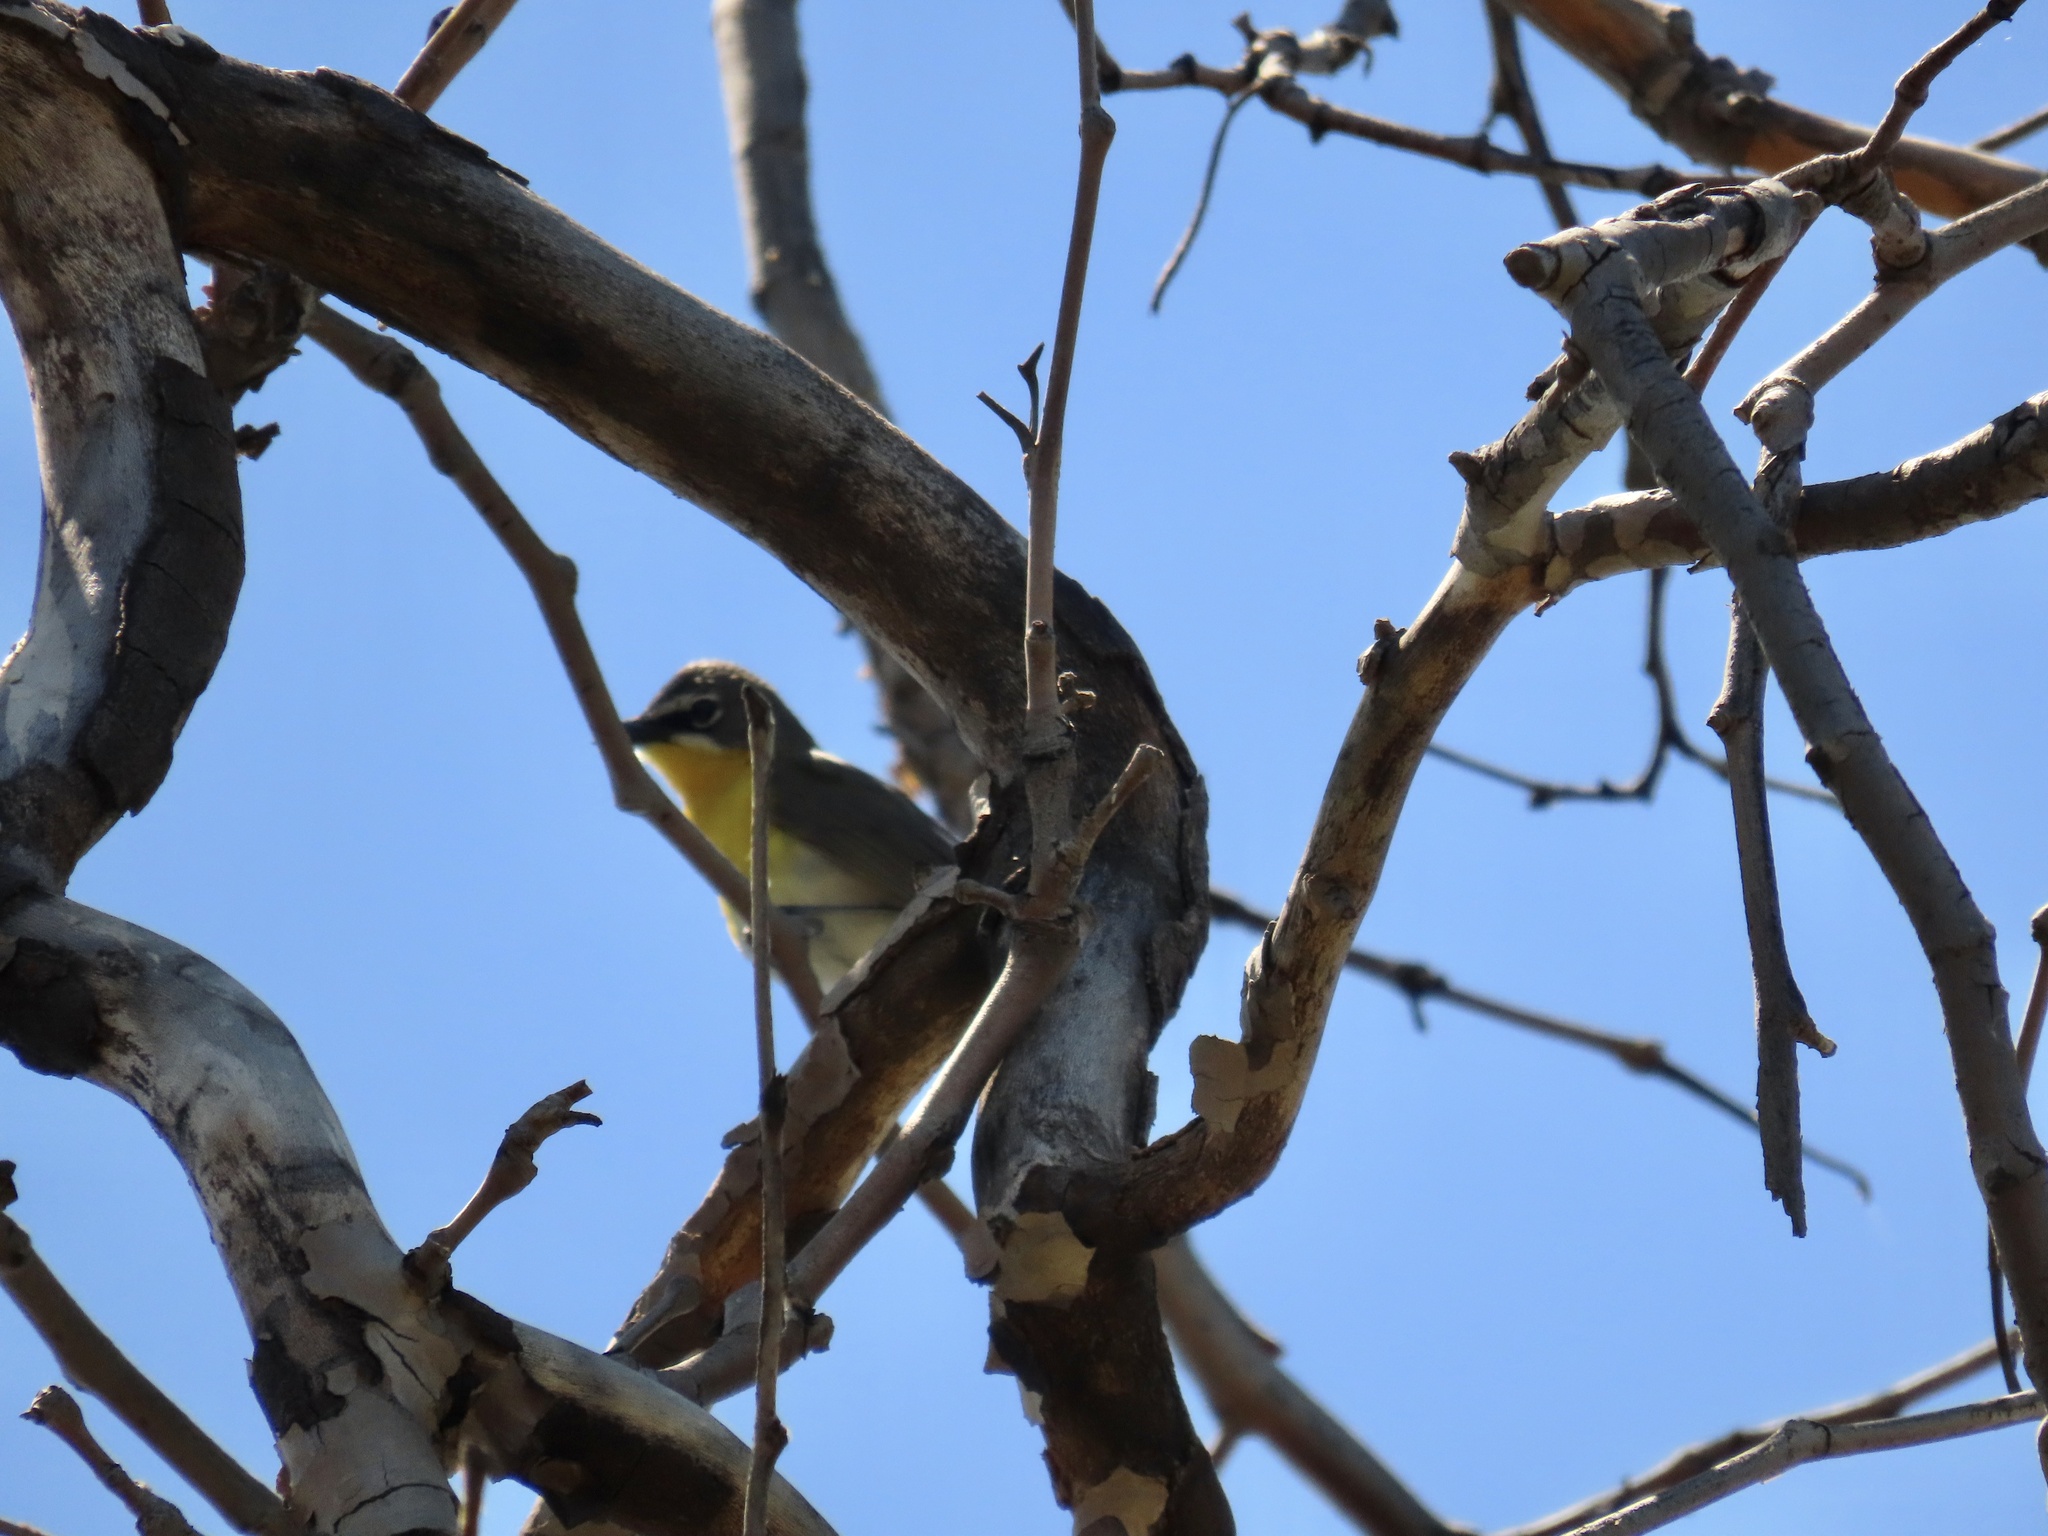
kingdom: Animalia
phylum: Chordata
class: Aves
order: Passeriformes
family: Parulidae
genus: Icteria
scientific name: Icteria virens
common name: Yellow-breasted chat
